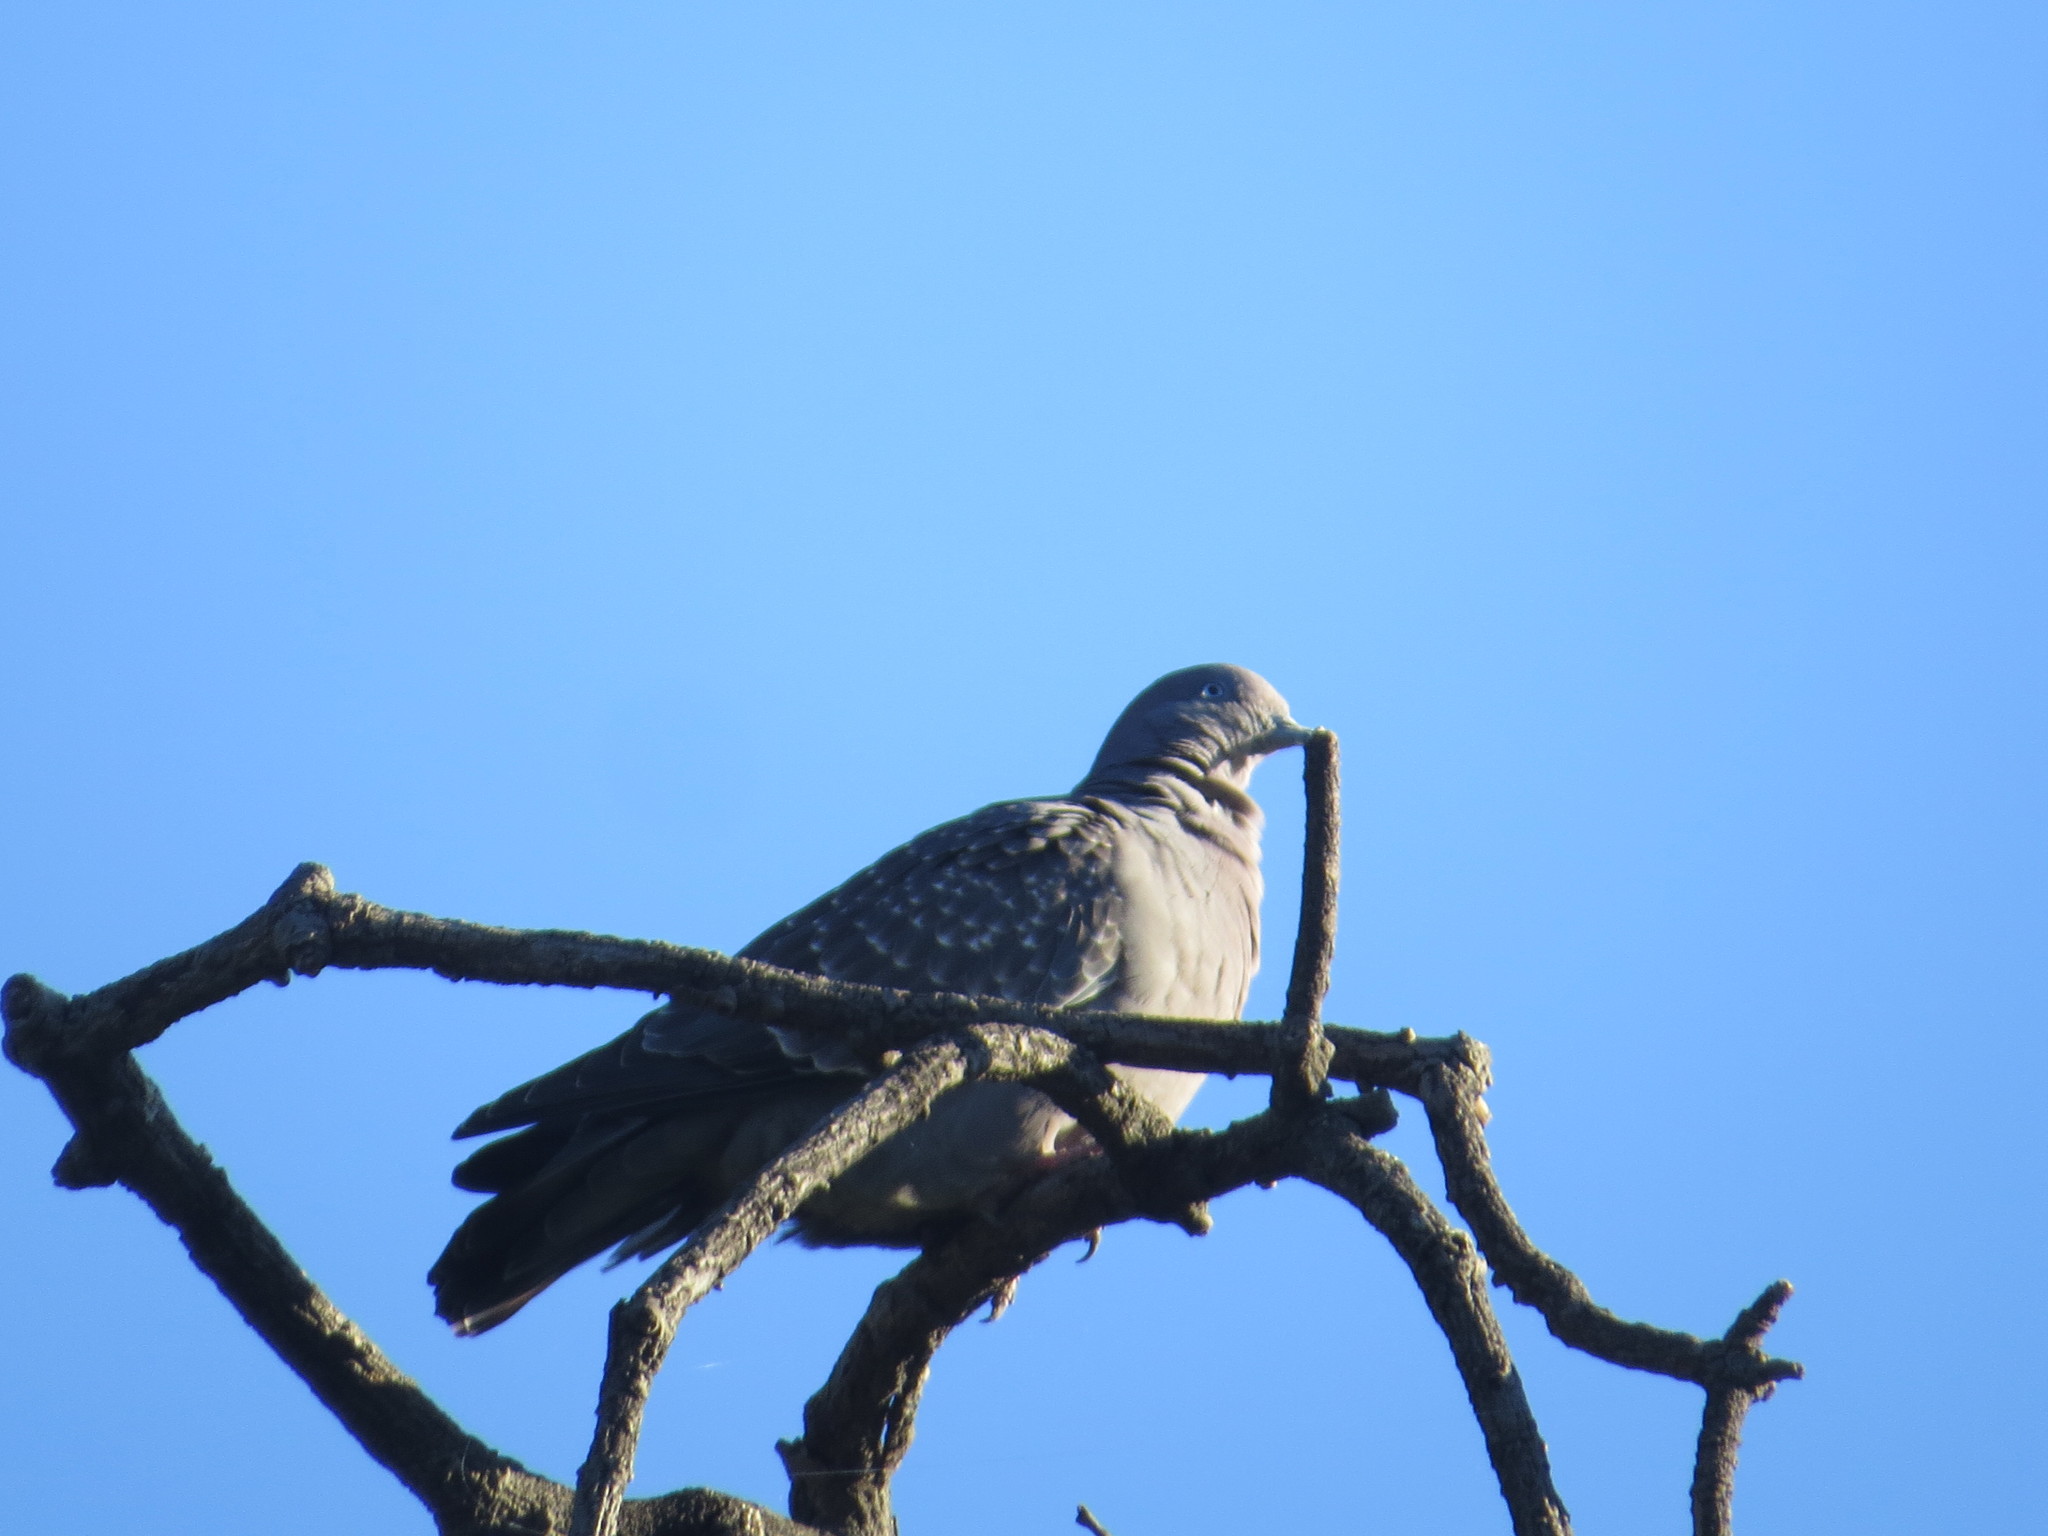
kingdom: Animalia
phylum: Chordata
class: Aves
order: Columbiformes
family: Columbidae
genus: Patagioenas
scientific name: Patagioenas maculosa
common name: Spot-winged pigeon
